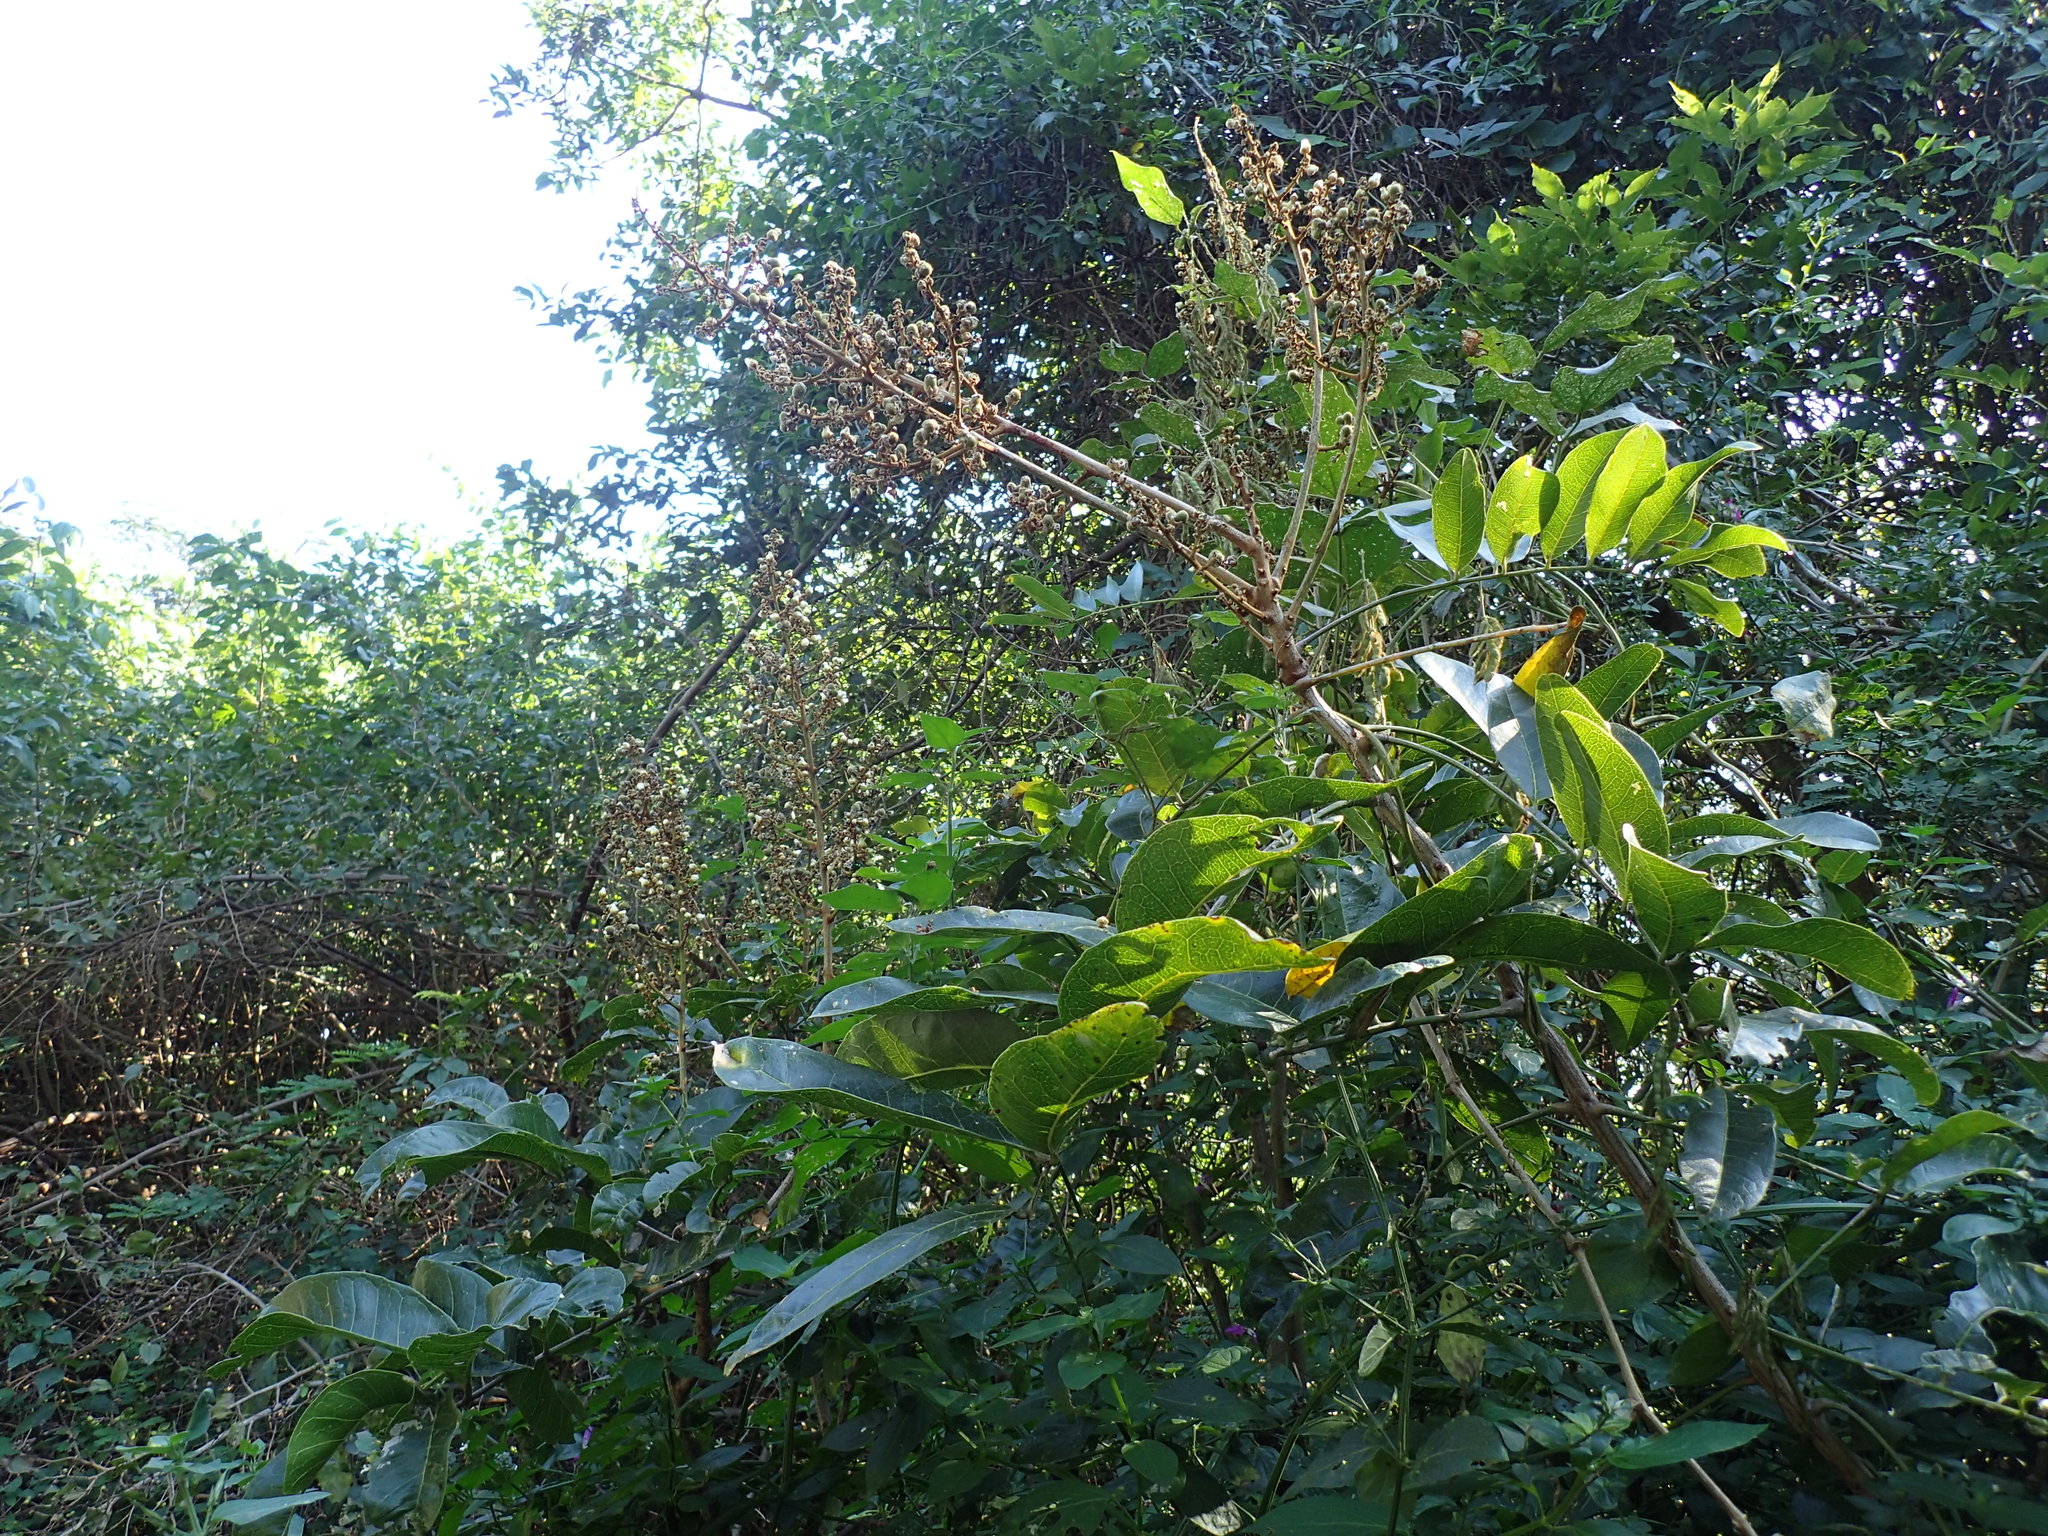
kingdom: Plantae
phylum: Tracheophyta
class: Magnoliopsida
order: Sapindales
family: Sapindaceae
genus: Deinbollia
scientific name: Deinbollia oblongifolia
